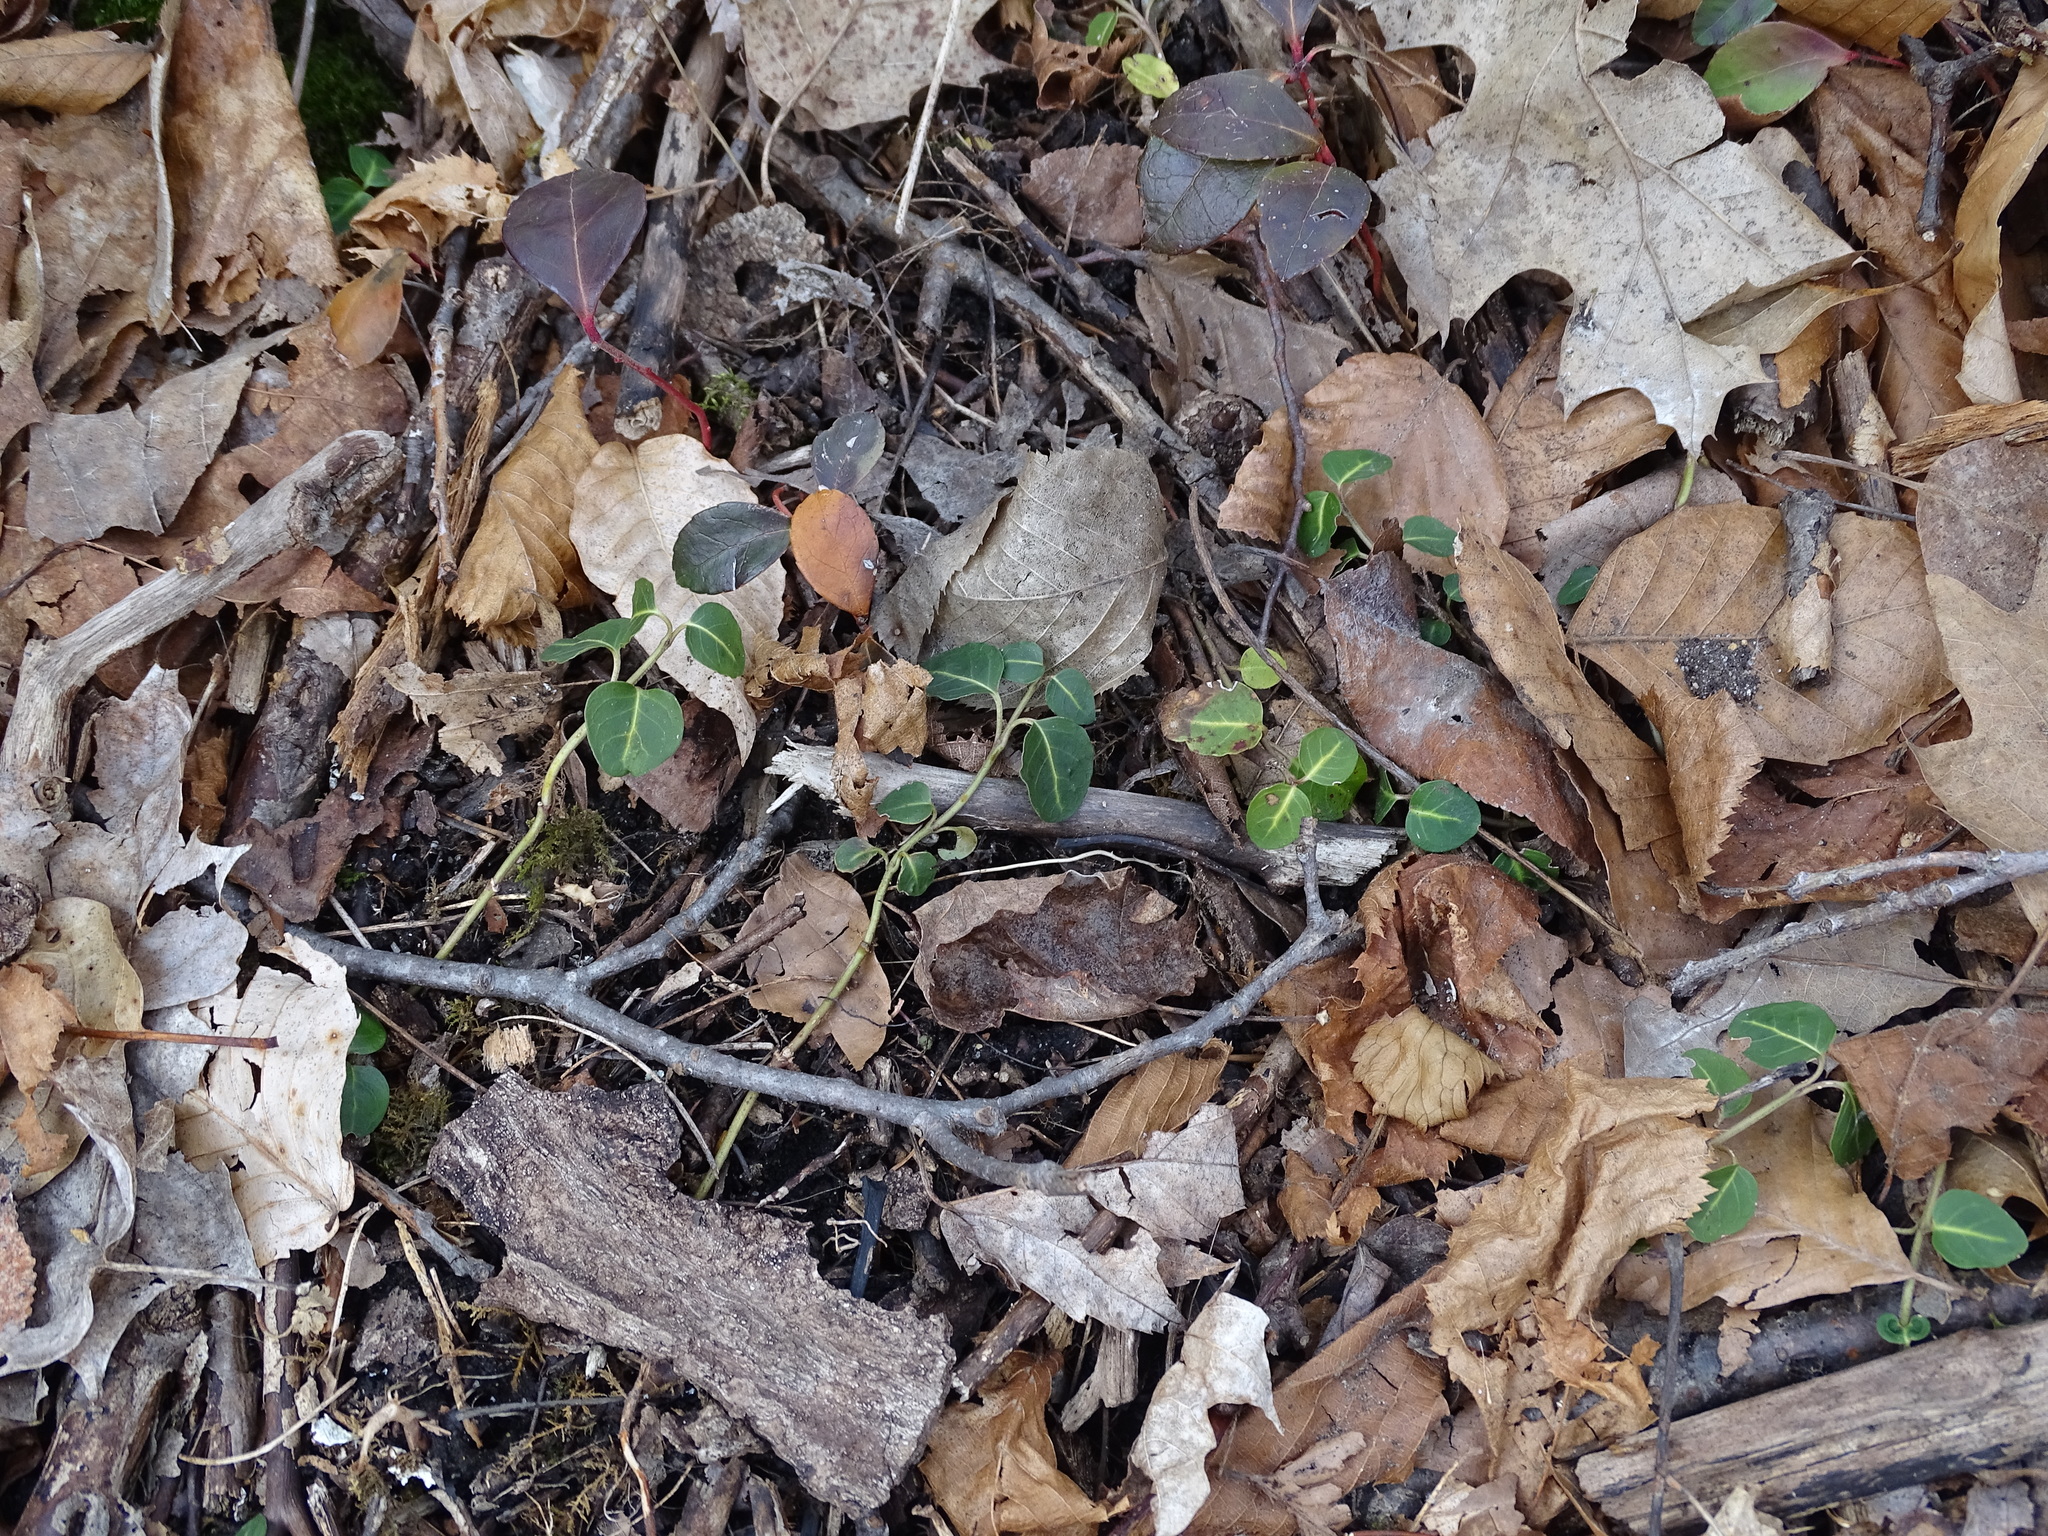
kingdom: Plantae
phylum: Tracheophyta
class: Magnoliopsida
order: Gentianales
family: Rubiaceae
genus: Mitchella
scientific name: Mitchella repens
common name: Partridge-berry
